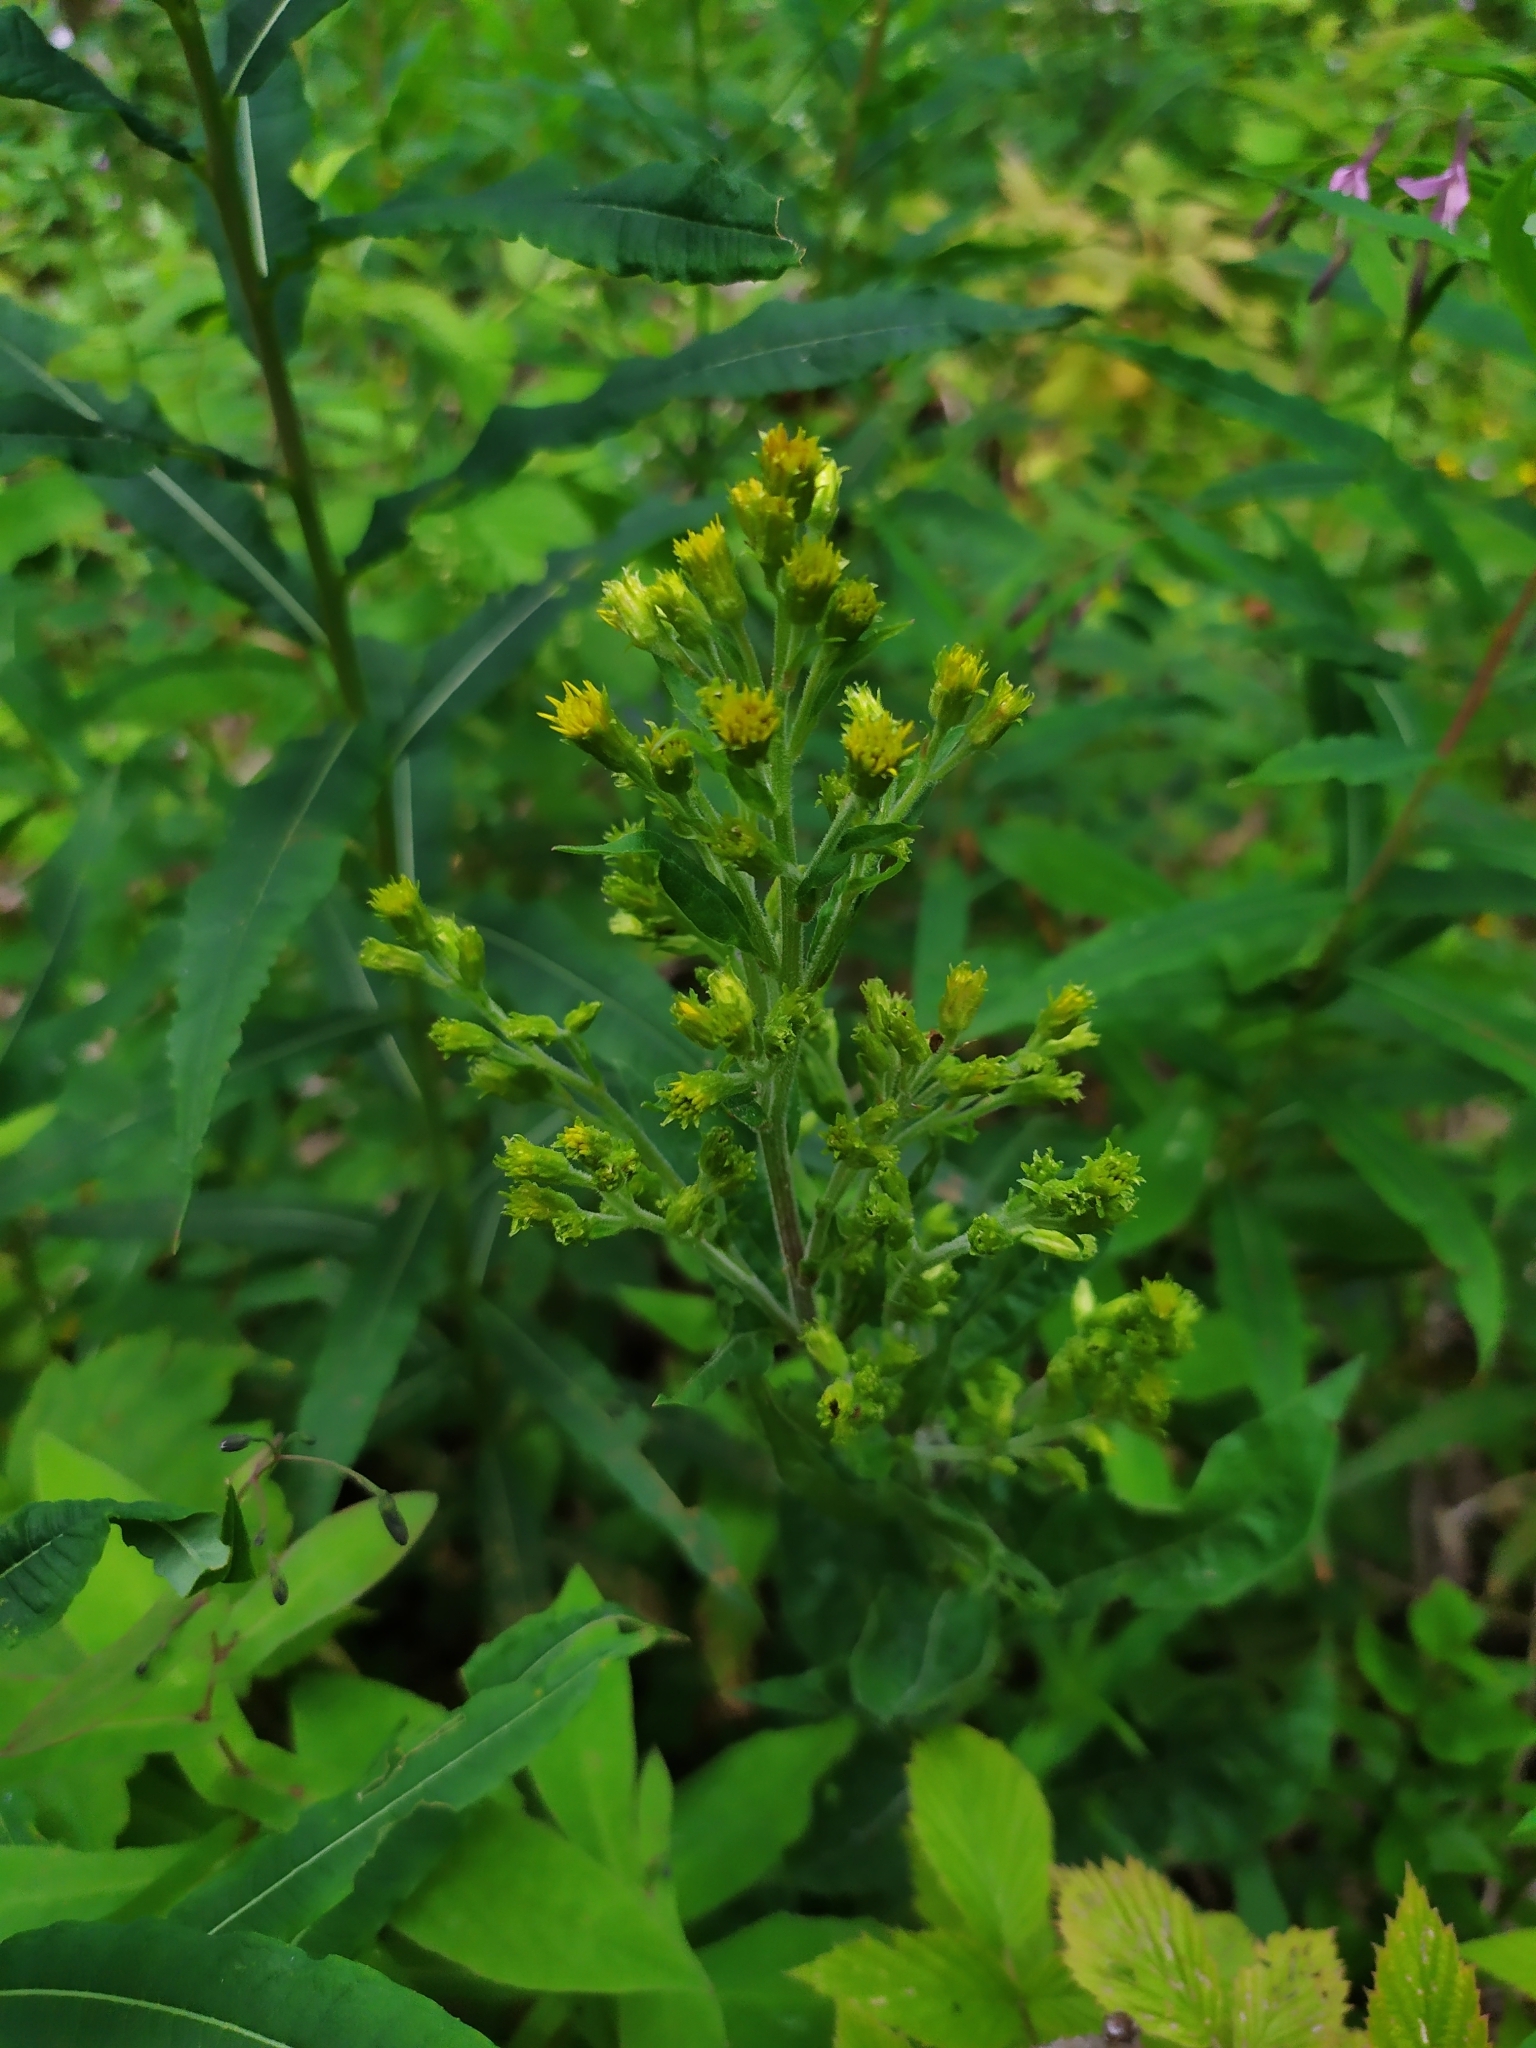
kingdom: Plantae
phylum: Tracheophyta
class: Magnoliopsida
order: Asterales
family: Asteraceae
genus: Solidago
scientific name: Solidago virgaurea
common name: Goldenrod
